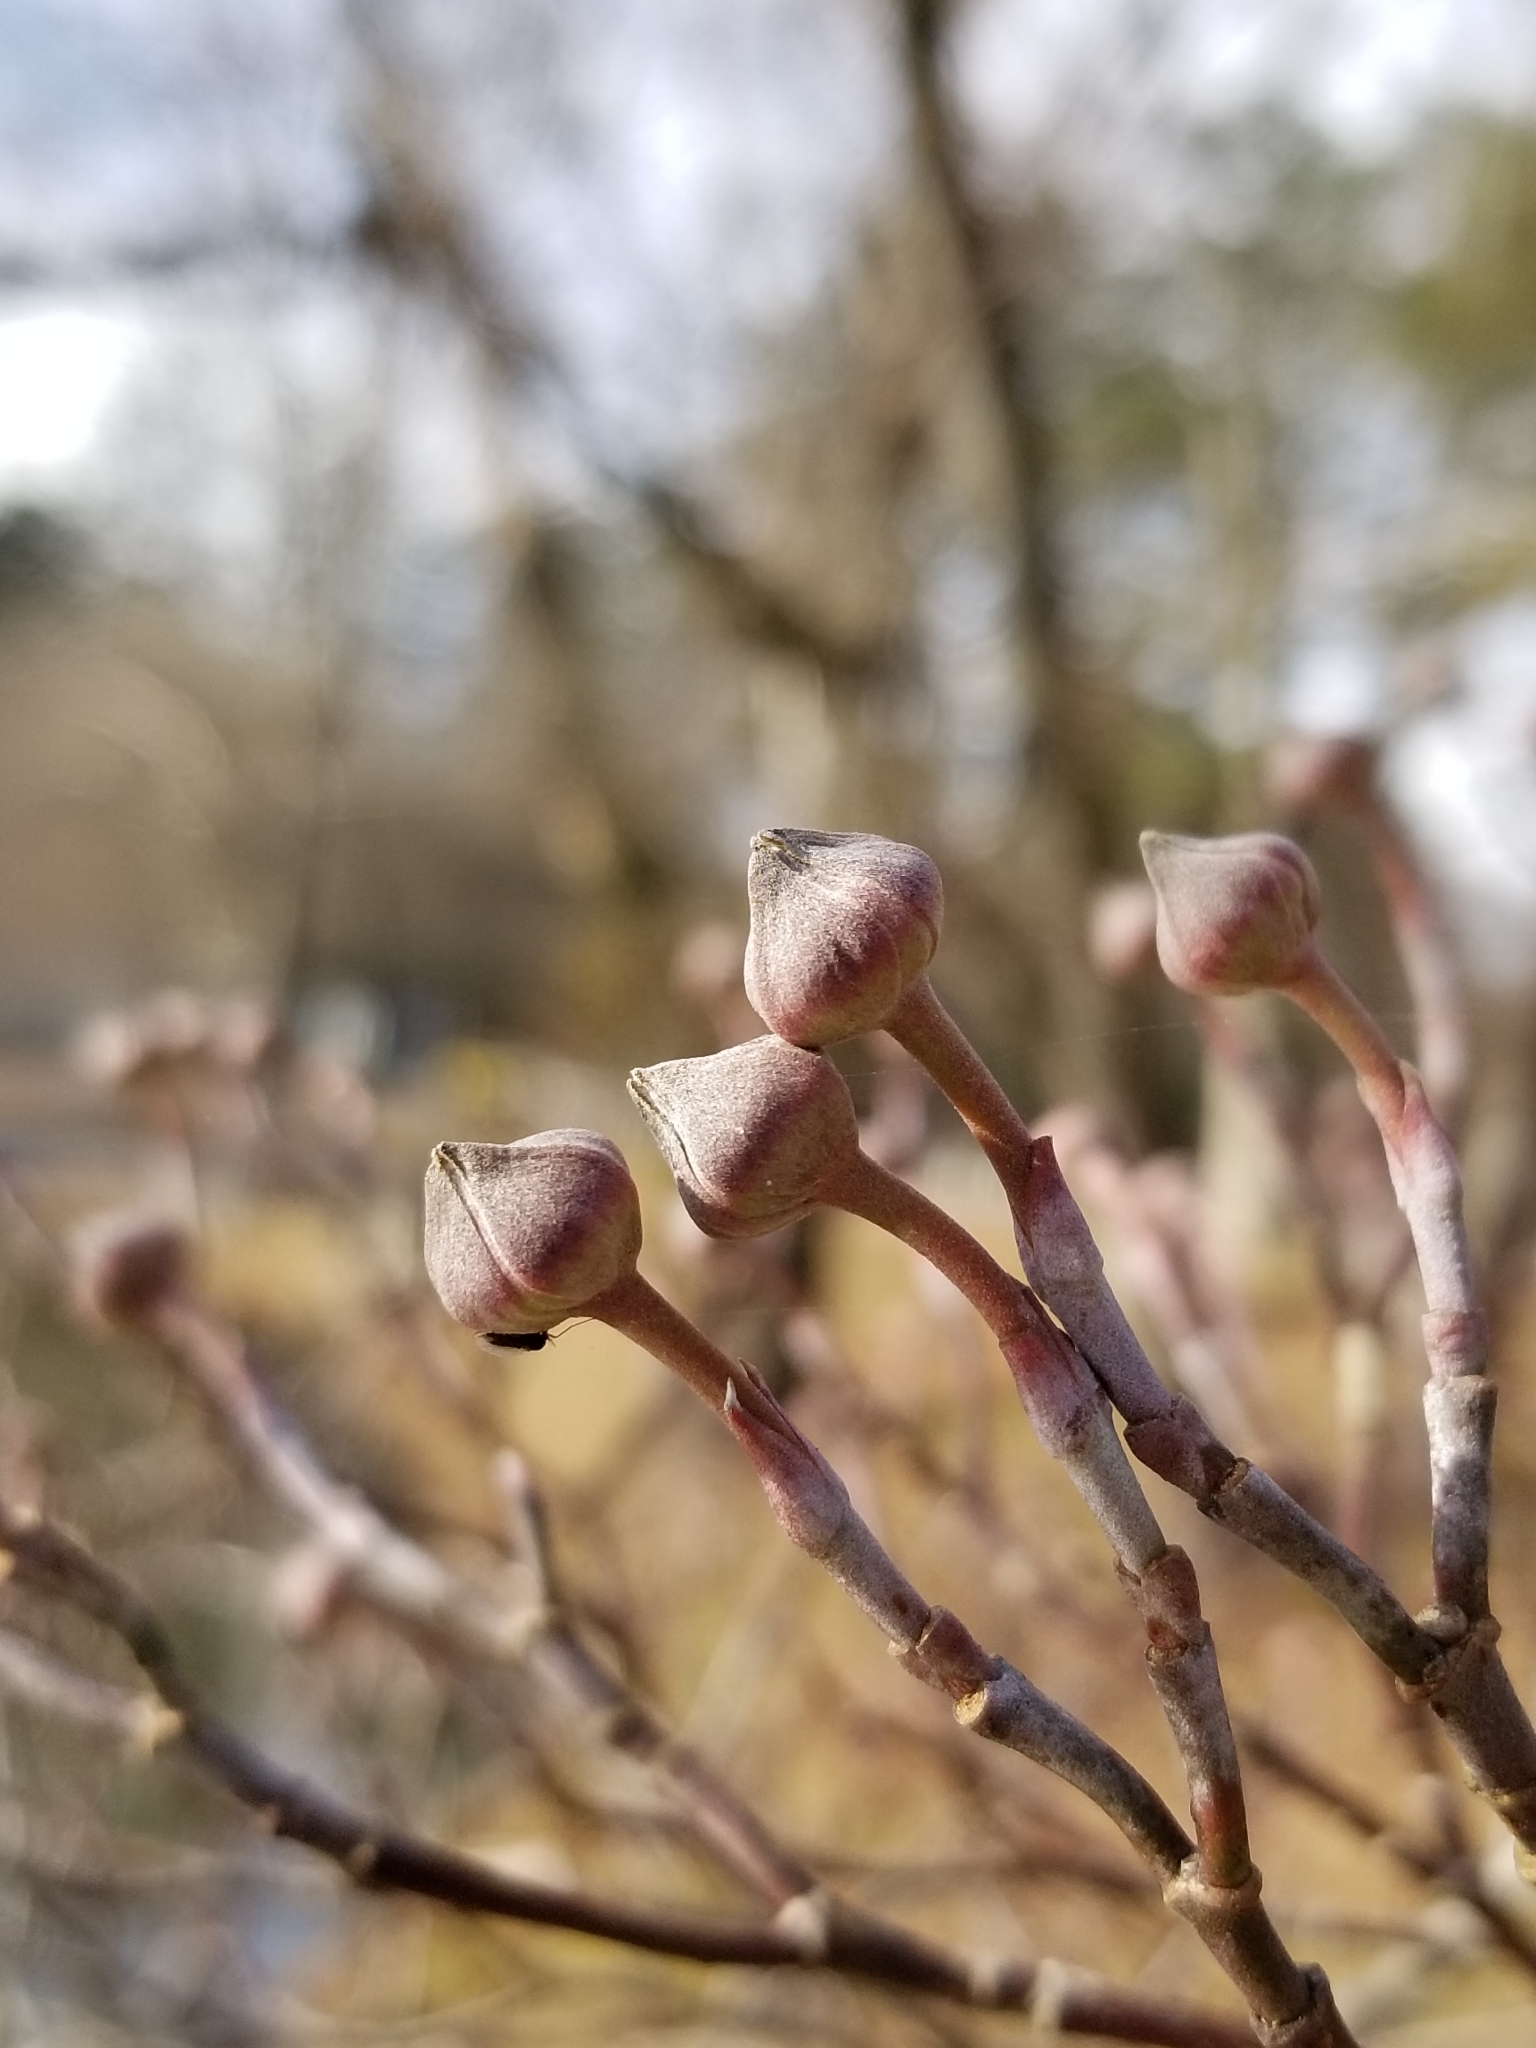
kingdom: Plantae
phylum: Tracheophyta
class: Magnoliopsida
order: Cornales
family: Cornaceae
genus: Cornus
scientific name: Cornus florida
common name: Flowering dogwood
